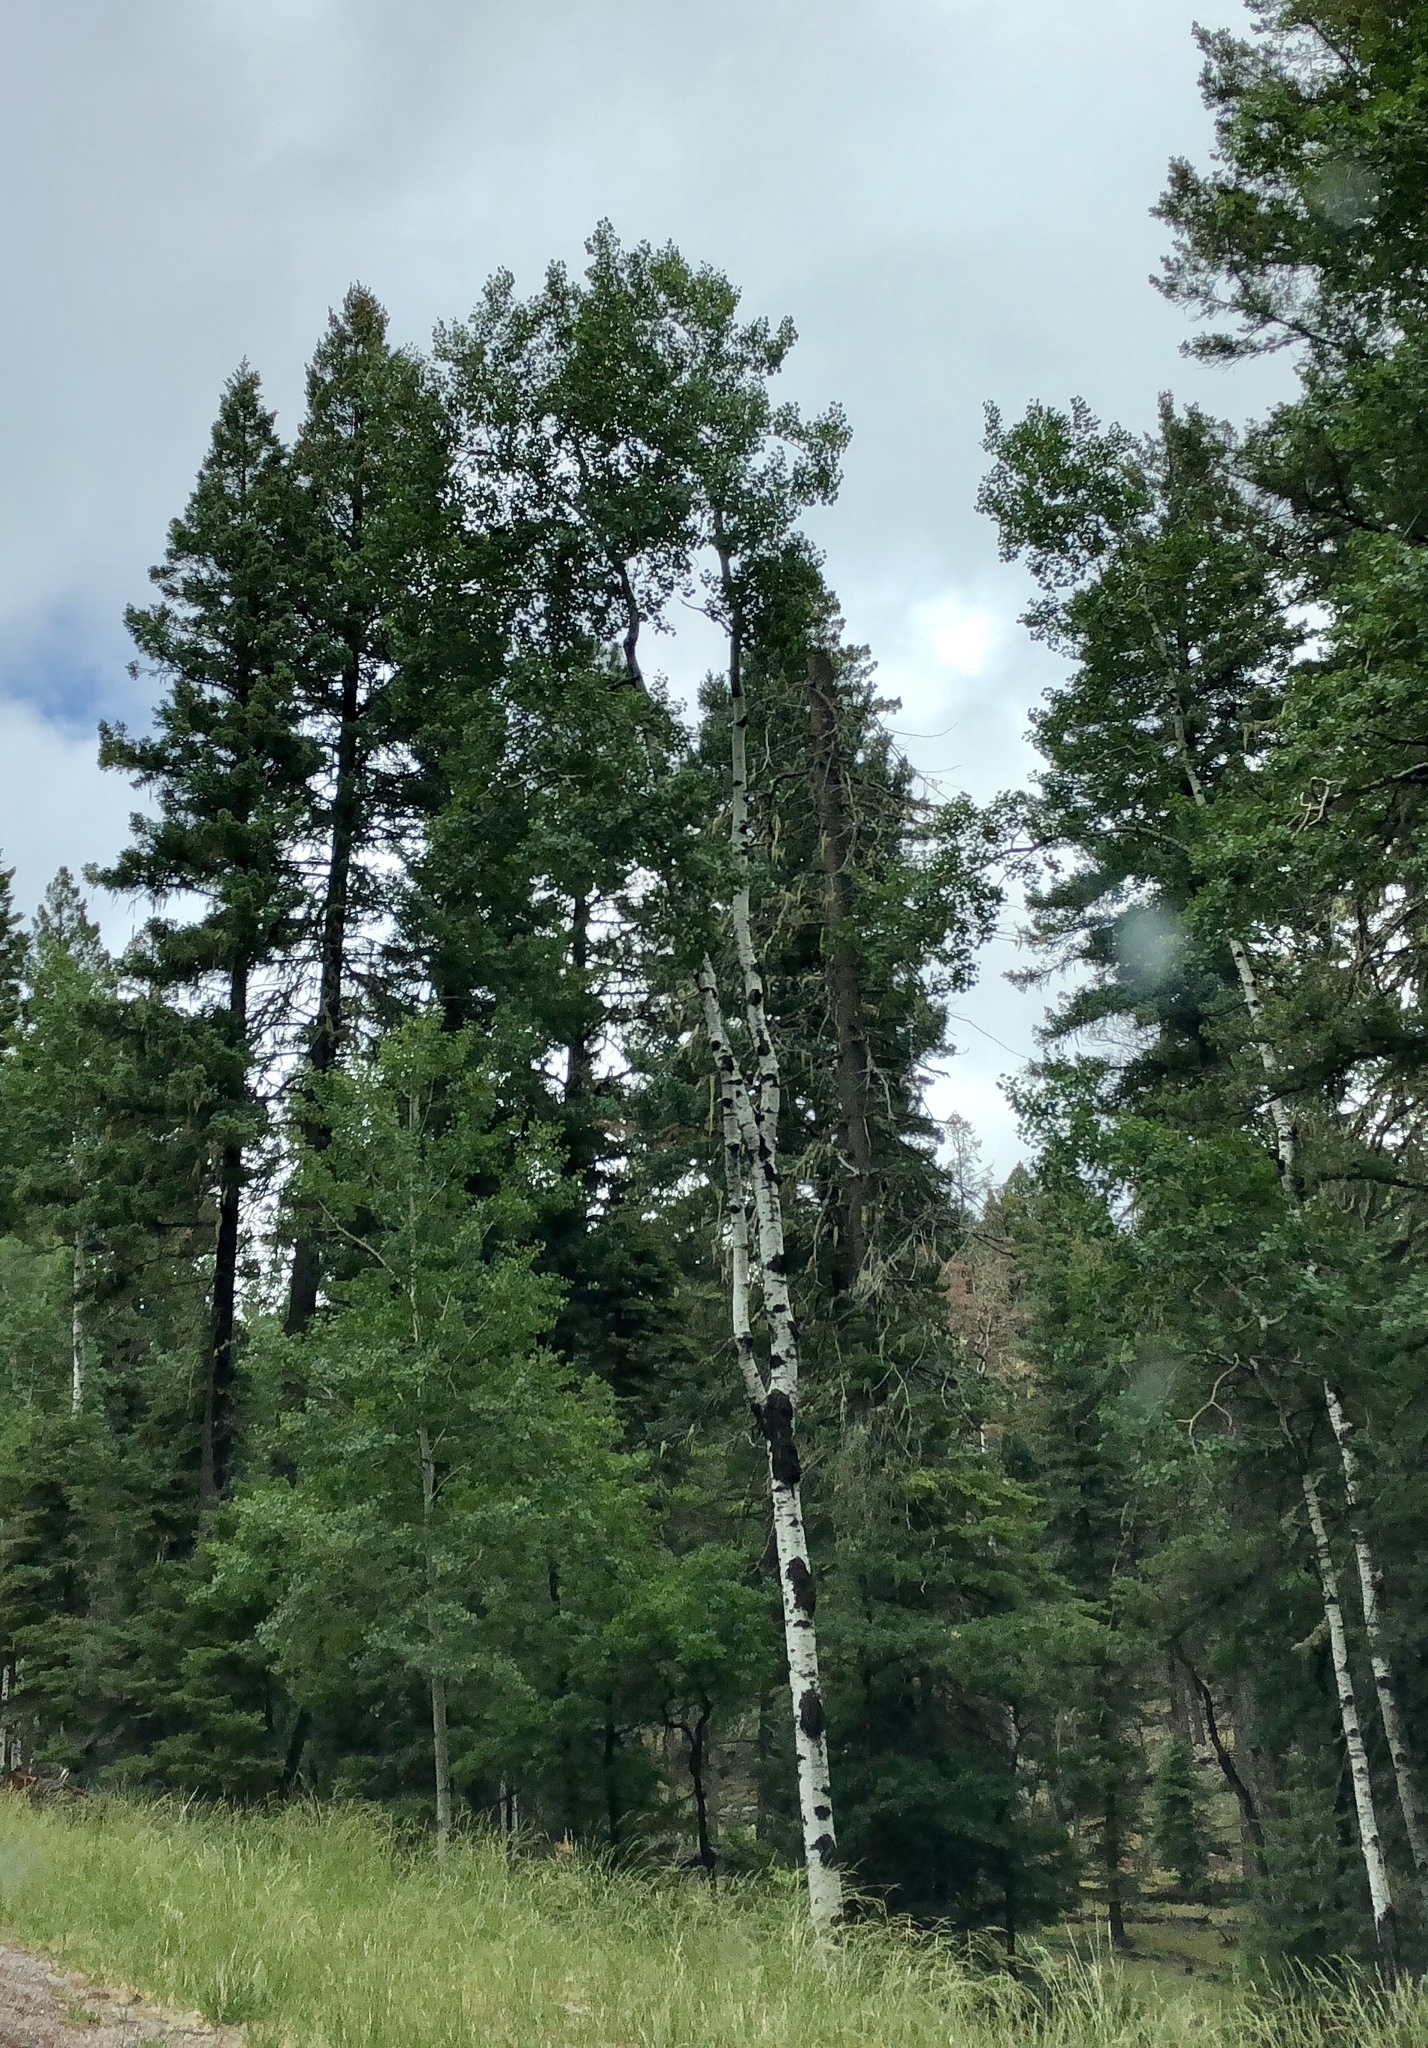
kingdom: Plantae
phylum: Tracheophyta
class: Magnoliopsida
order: Malpighiales
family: Salicaceae
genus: Populus
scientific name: Populus tremuloides
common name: Quaking aspen
